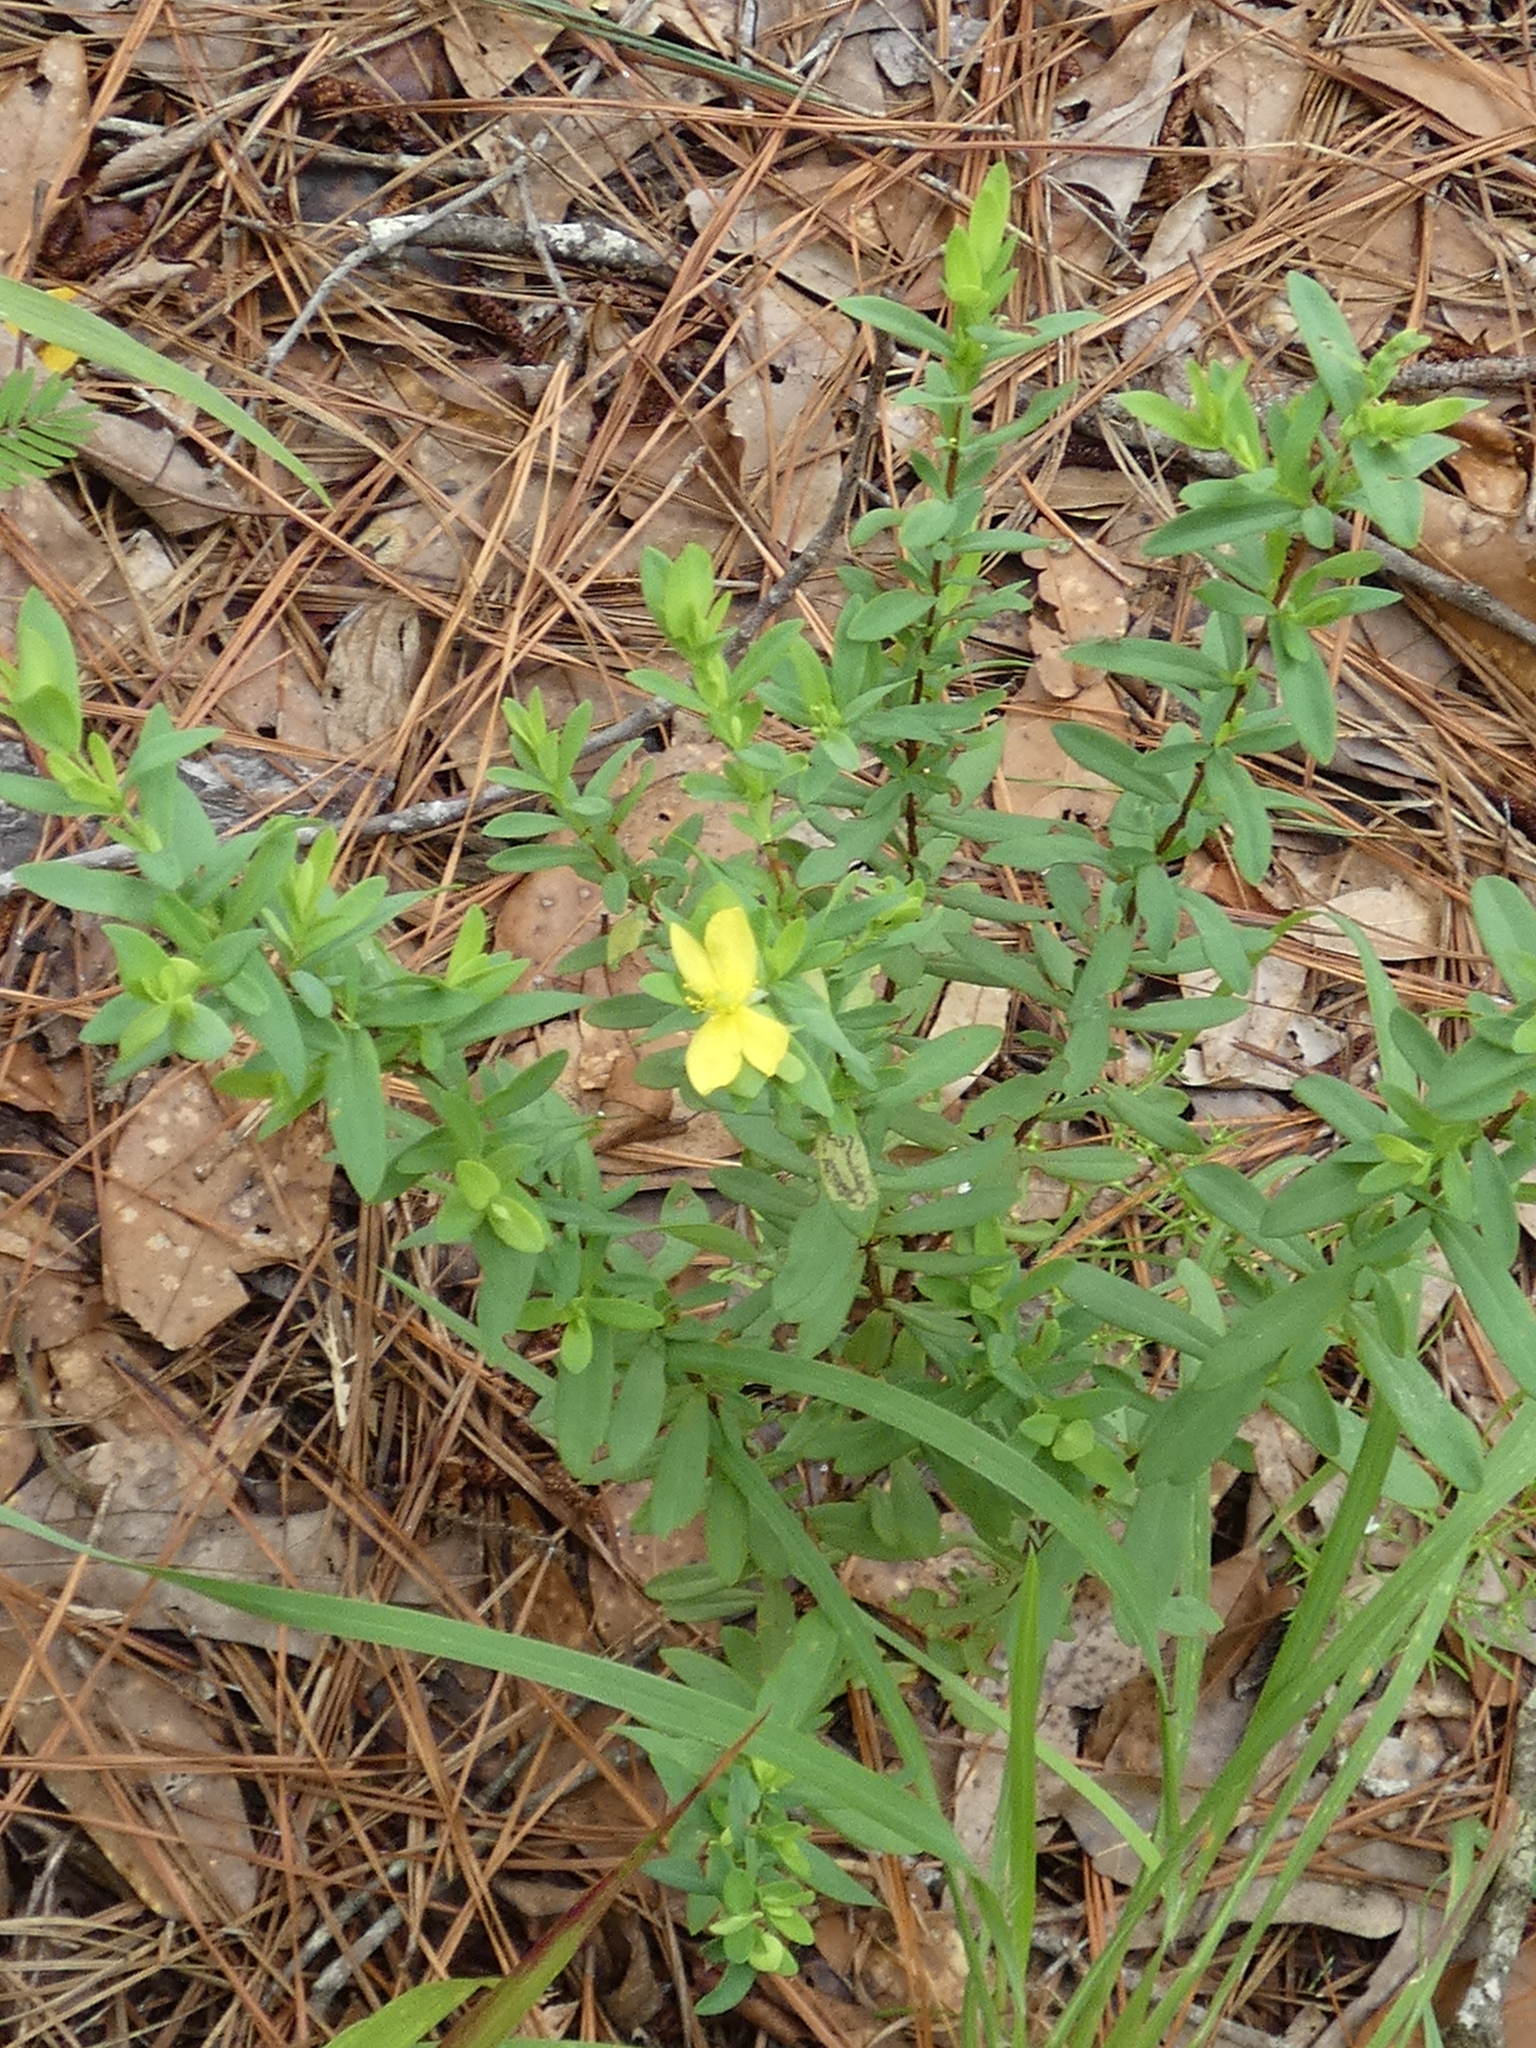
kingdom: Plantae
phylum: Tracheophyta
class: Magnoliopsida
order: Malpighiales
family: Hypericaceae
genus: Hypericum
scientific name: Hypericum hypericoides
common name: St. andrew's cross
